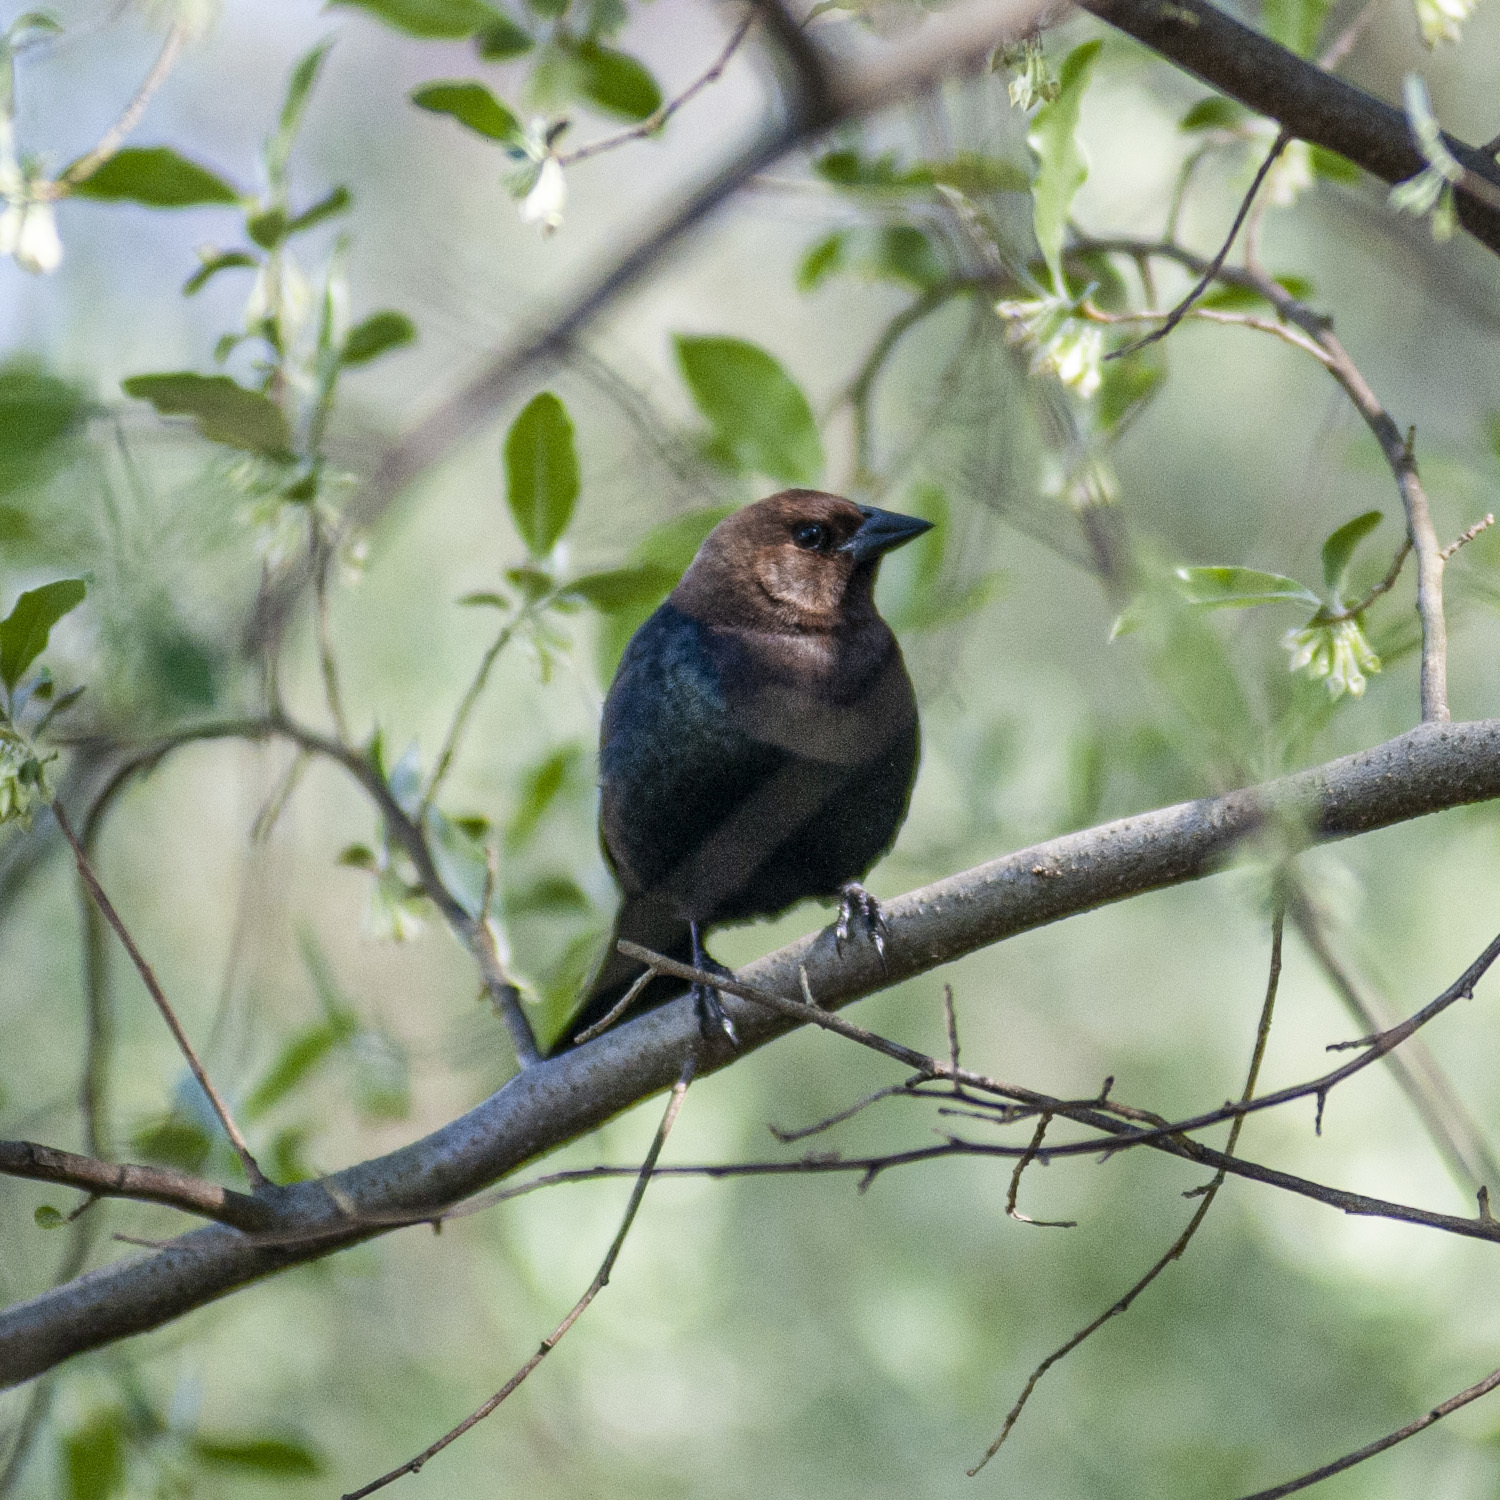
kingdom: Animalia
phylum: Chordata
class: Aves
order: Passeriformes
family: Icteridae
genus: Molothrus
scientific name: Molothrus ater
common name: Brown-headed cowbird
